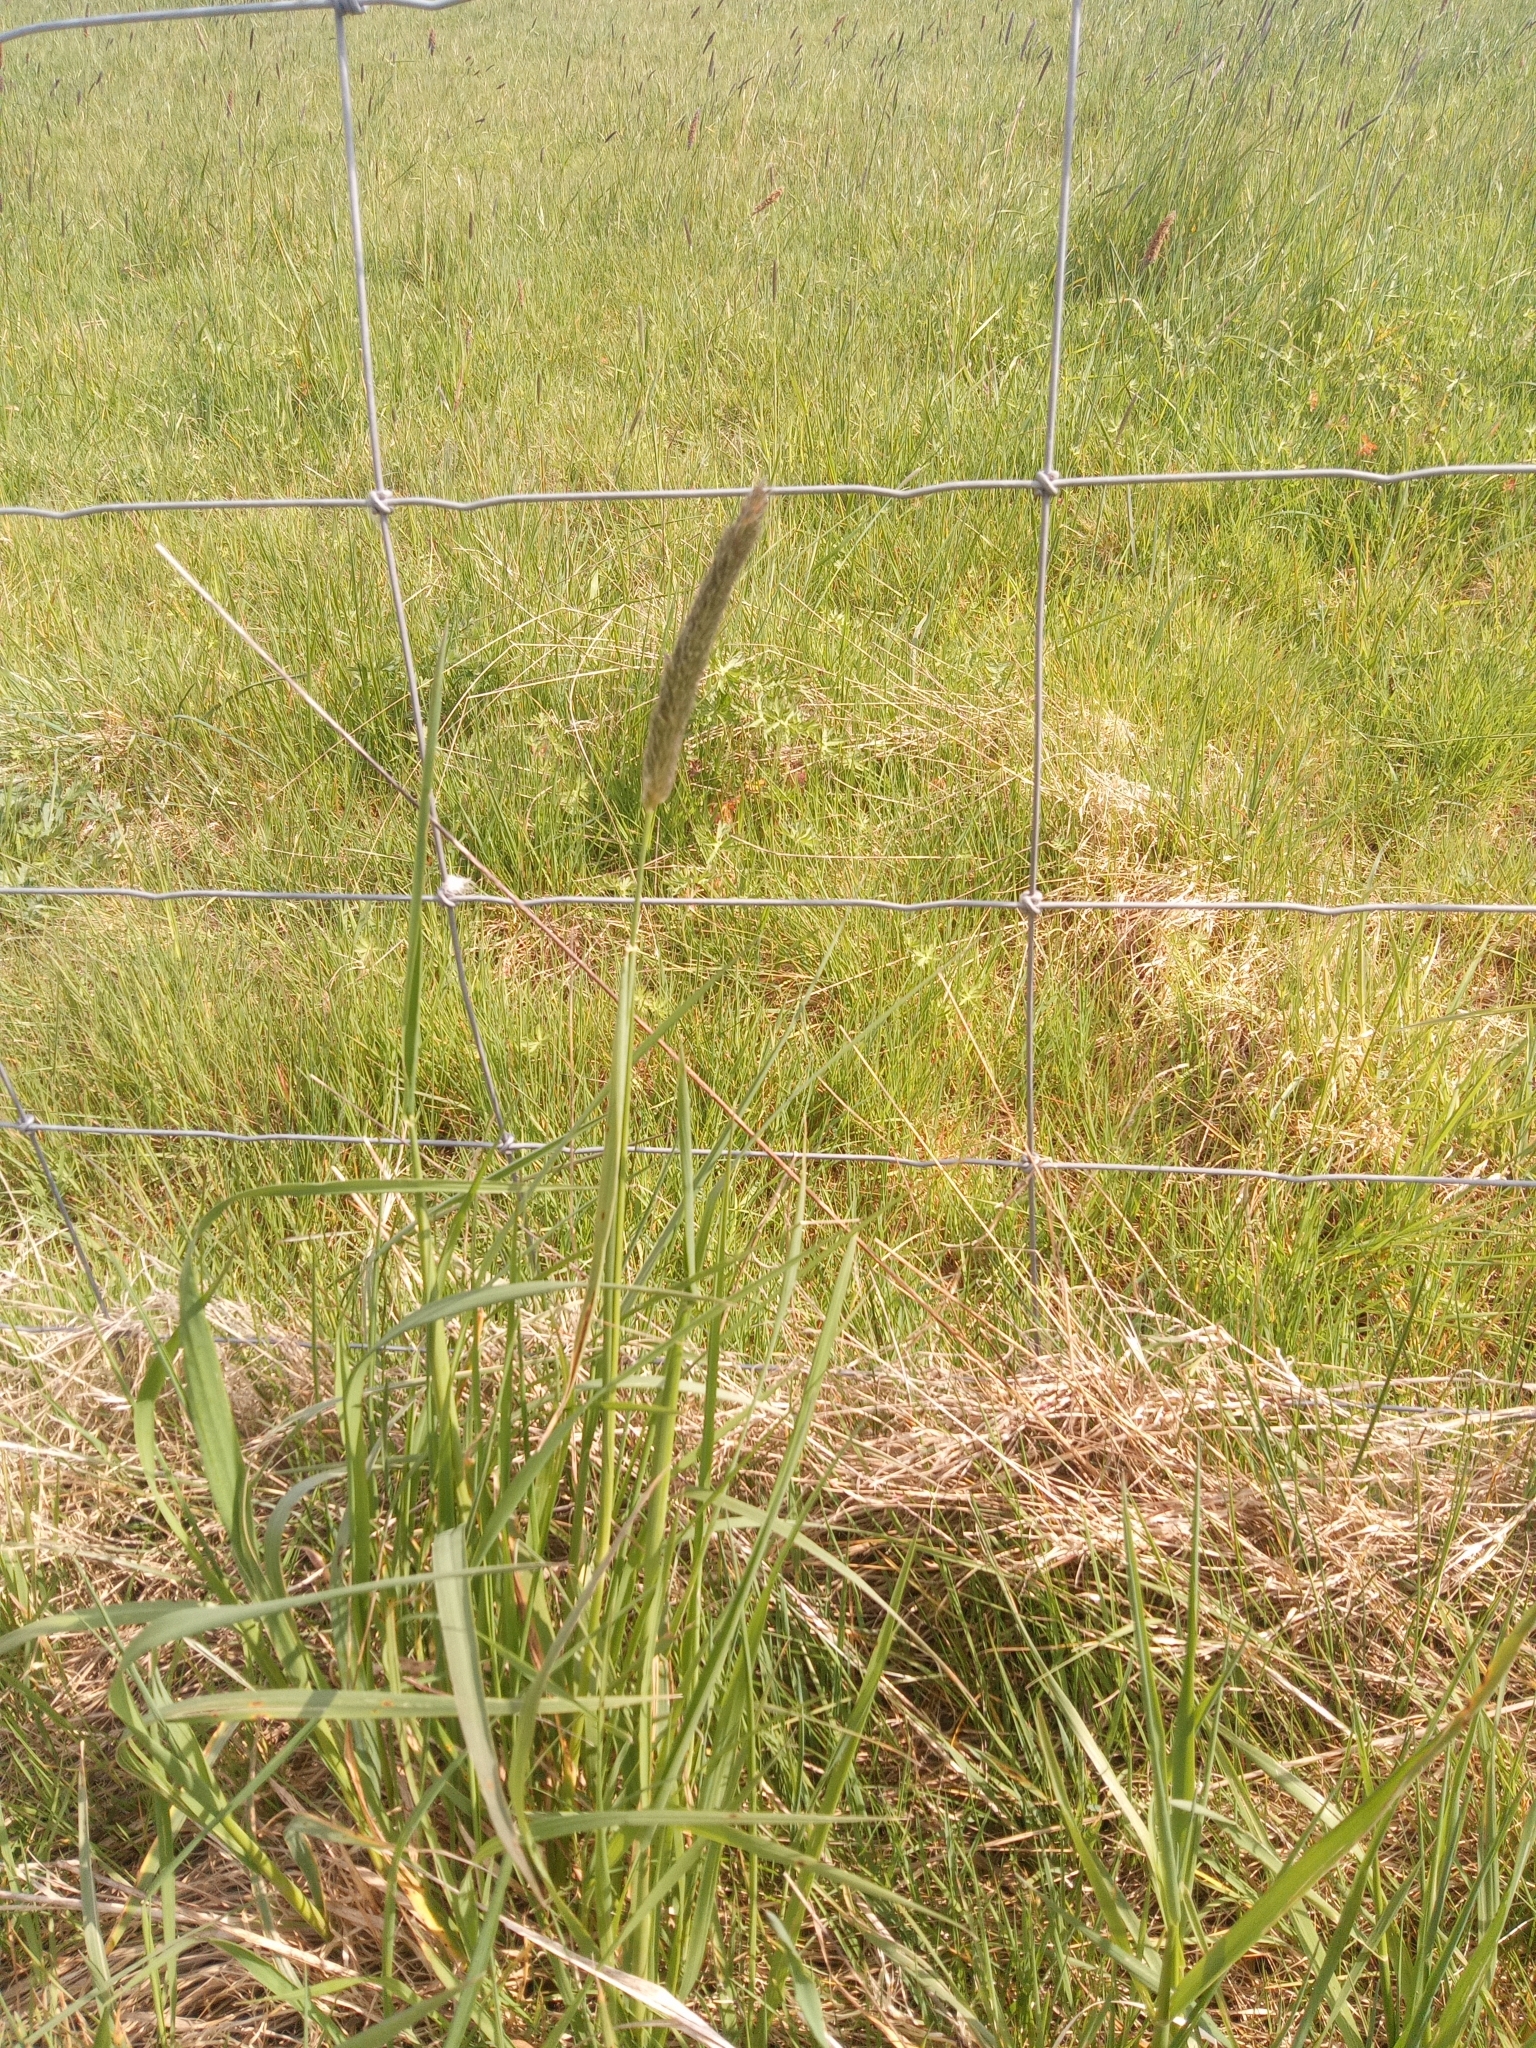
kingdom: Plantae
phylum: Tracheophyta
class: Liliopsida
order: Poales
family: Poaceae
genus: Alopecurus
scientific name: Alopecurus pratensis
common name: Meadow foxtail
